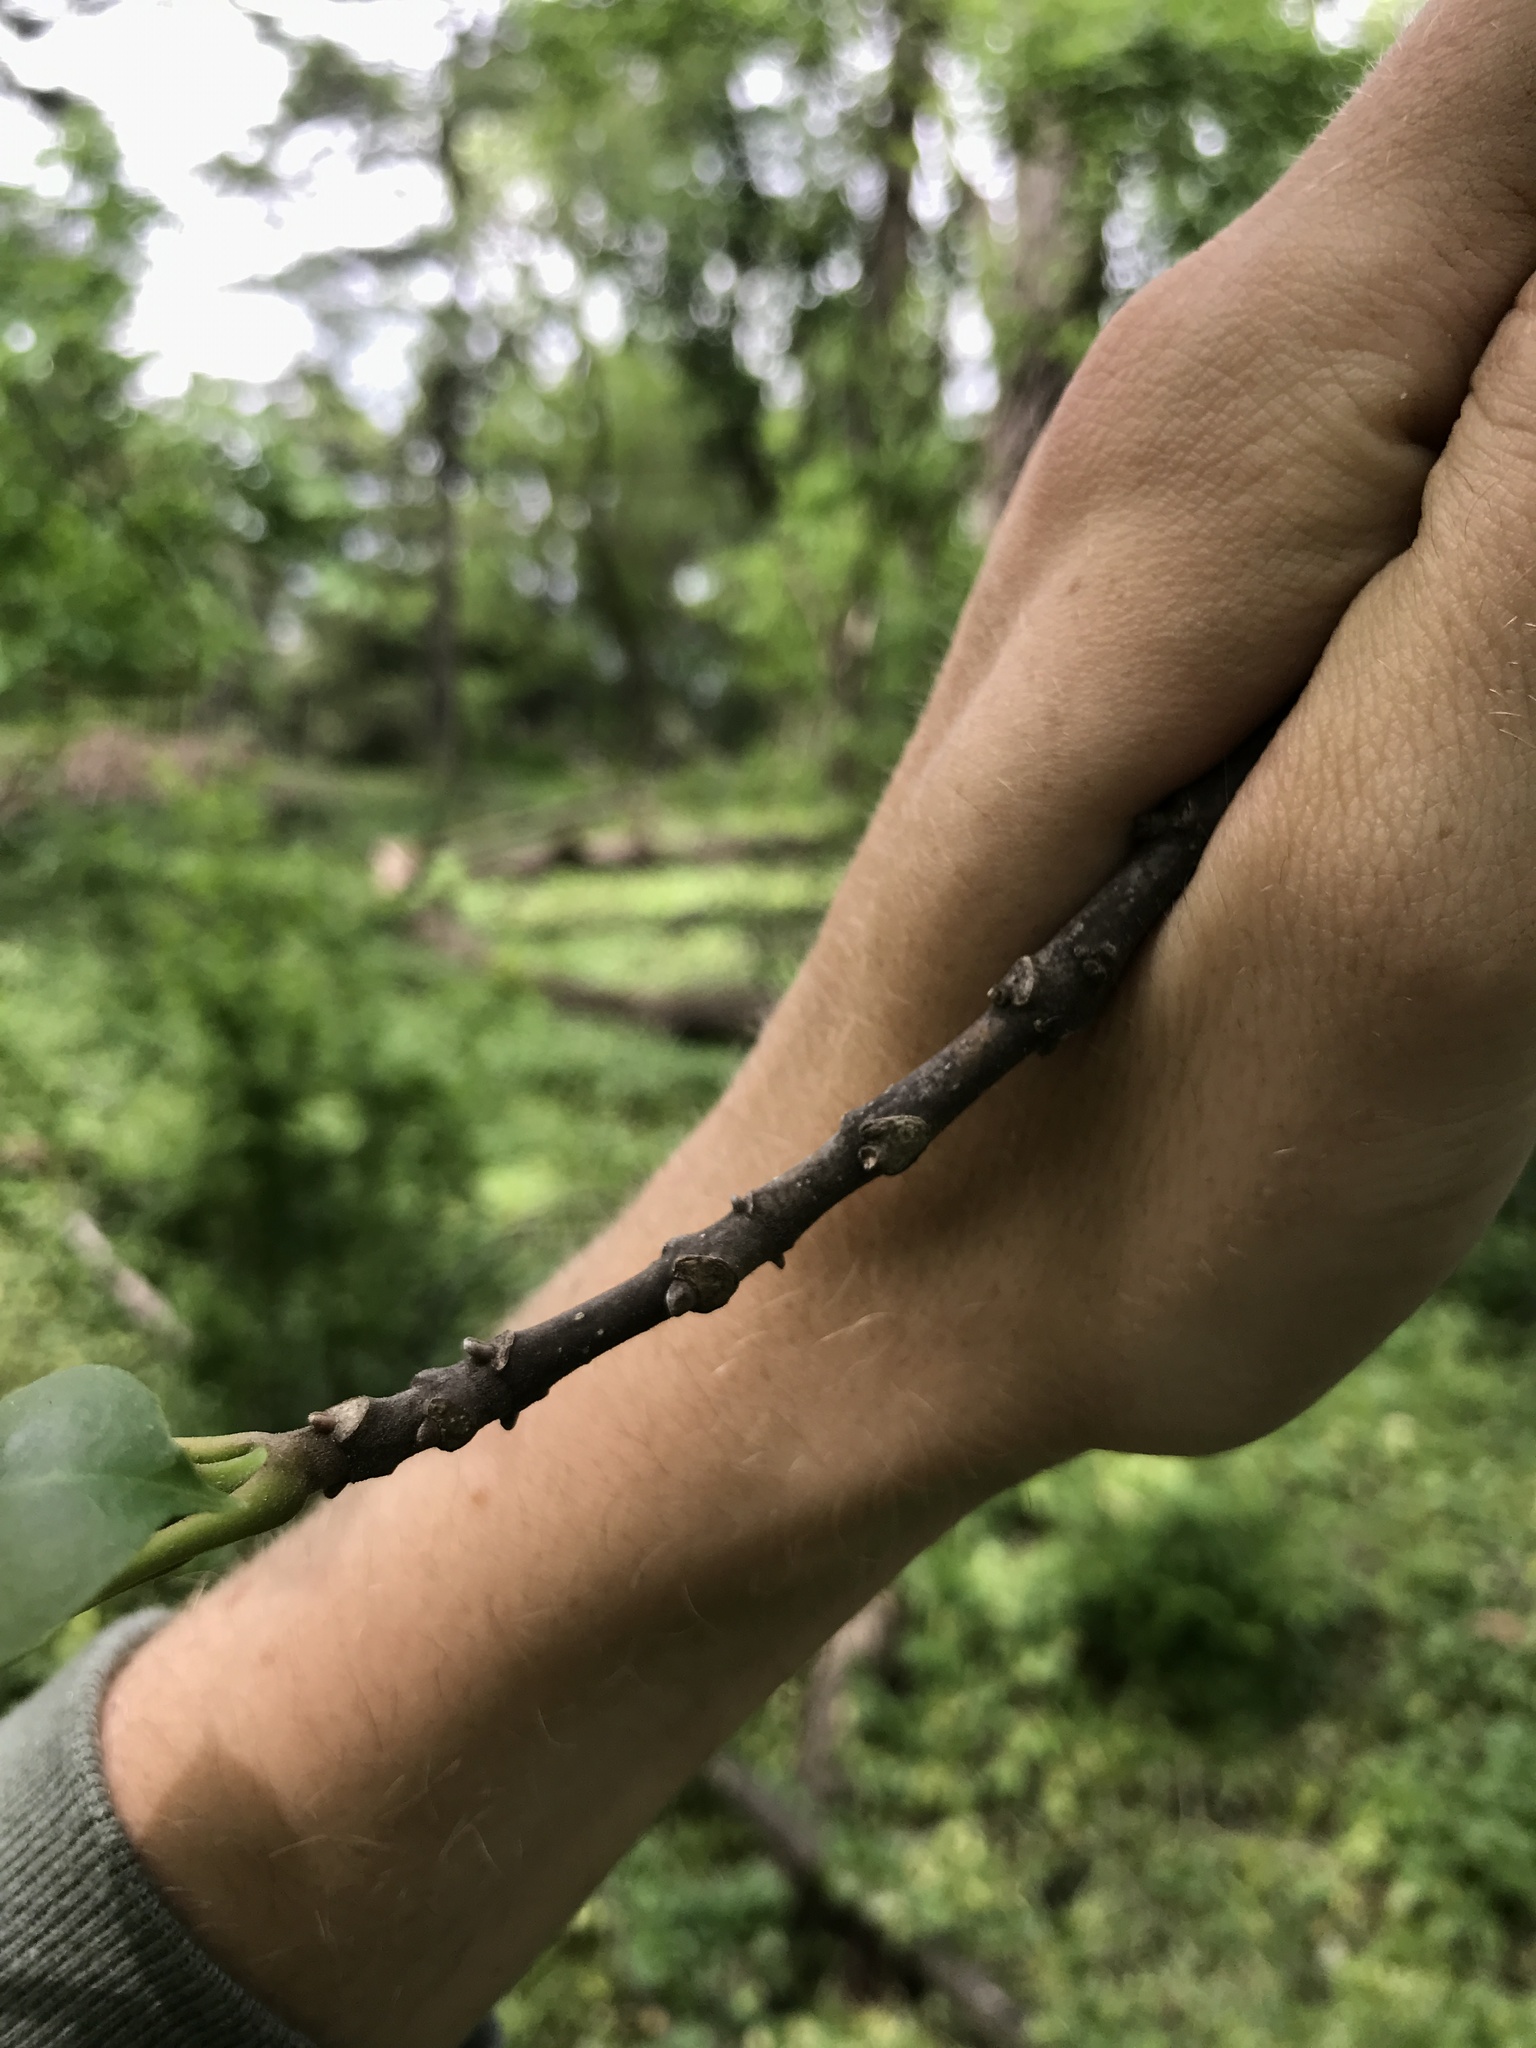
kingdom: Plantae
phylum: Tracheophyta
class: Magnoliopsida
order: Sapindales
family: Rutaceae
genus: Tetradium
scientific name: Tetradium daniellii
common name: Bee-bee tree
